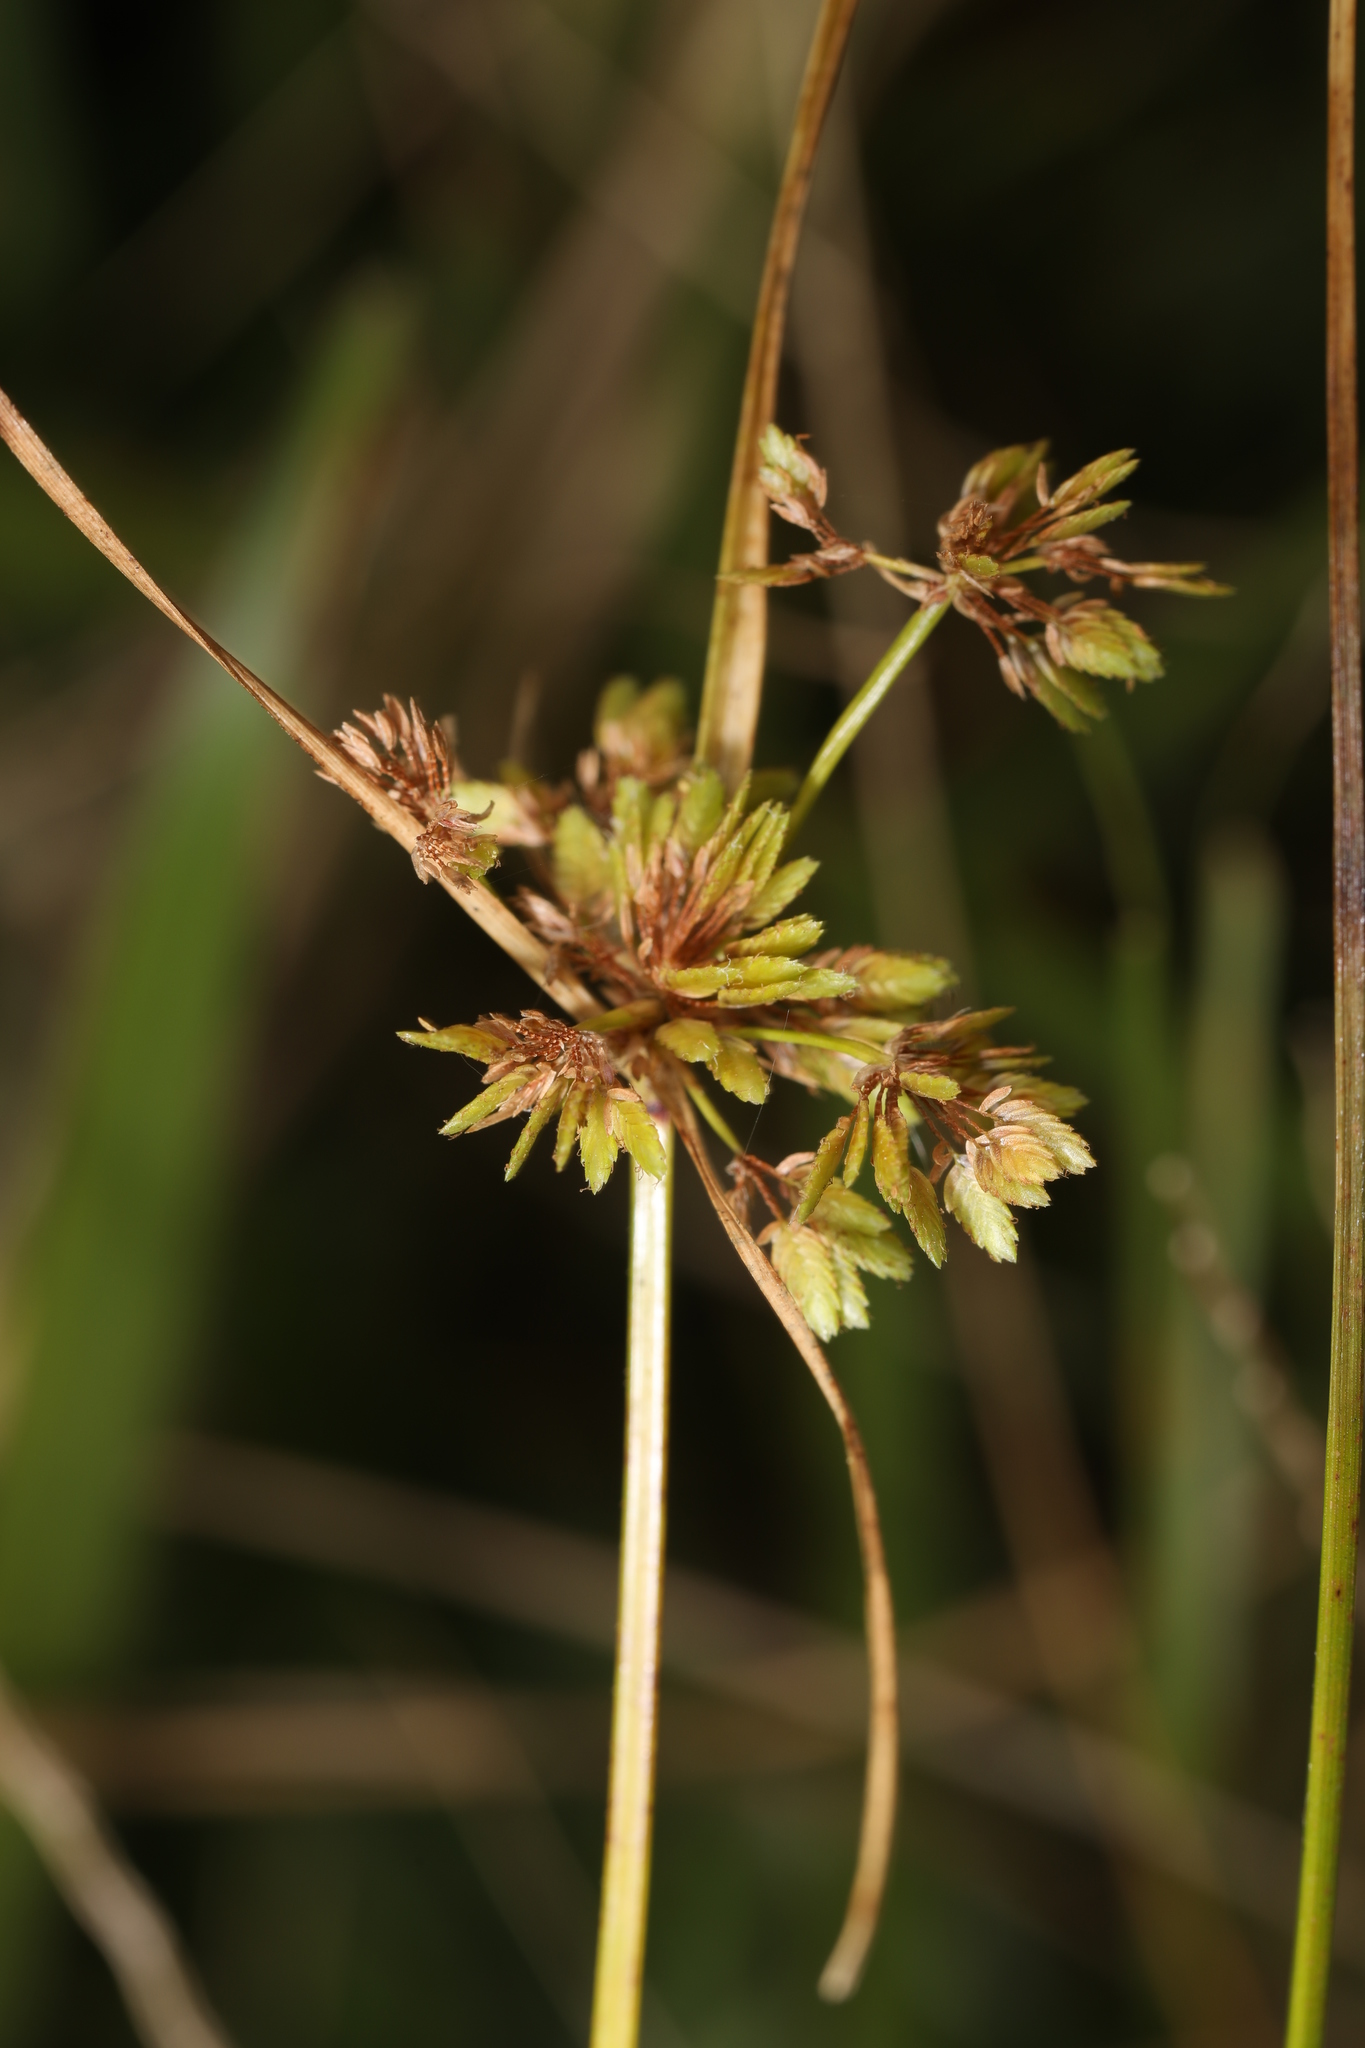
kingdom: Plantae
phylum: Tracheophyta
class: Liliopsida
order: Poales
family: Cyperaceae
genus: Cyperus
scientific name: Cyperus surinamensis
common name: Tropical flat sedge
